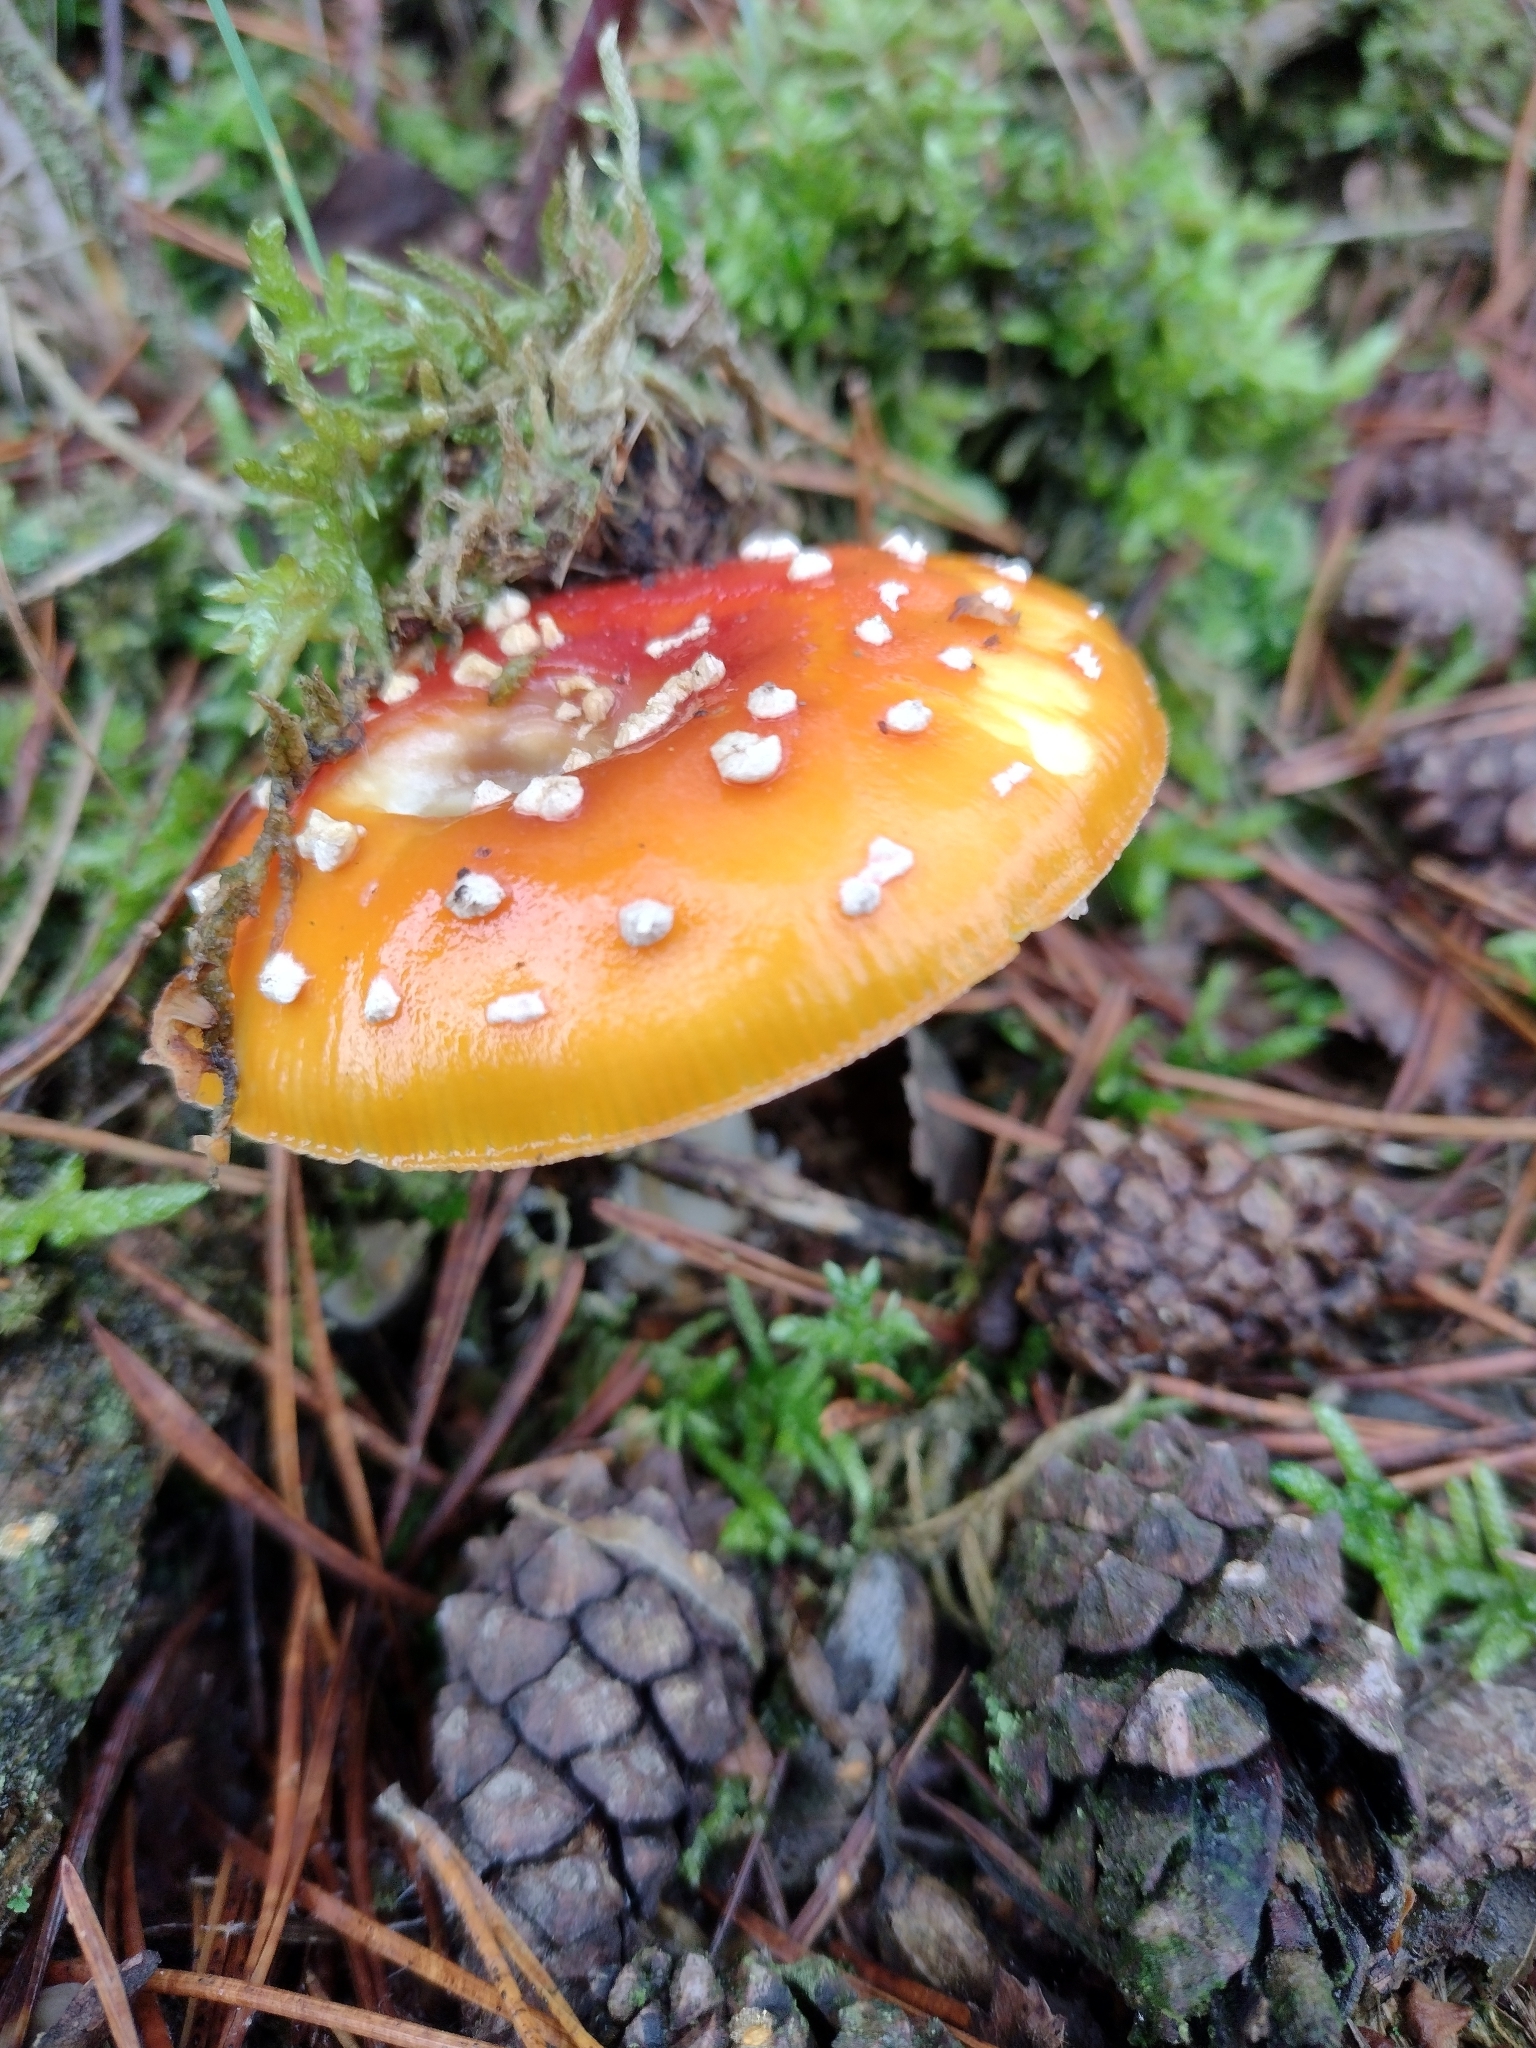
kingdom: Fungi
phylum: Basidiomycota
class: Agaricomycetes
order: Agaricales
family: Amanitaceae
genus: Amanita
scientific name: Amanita muscaria
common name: Fly agaric
